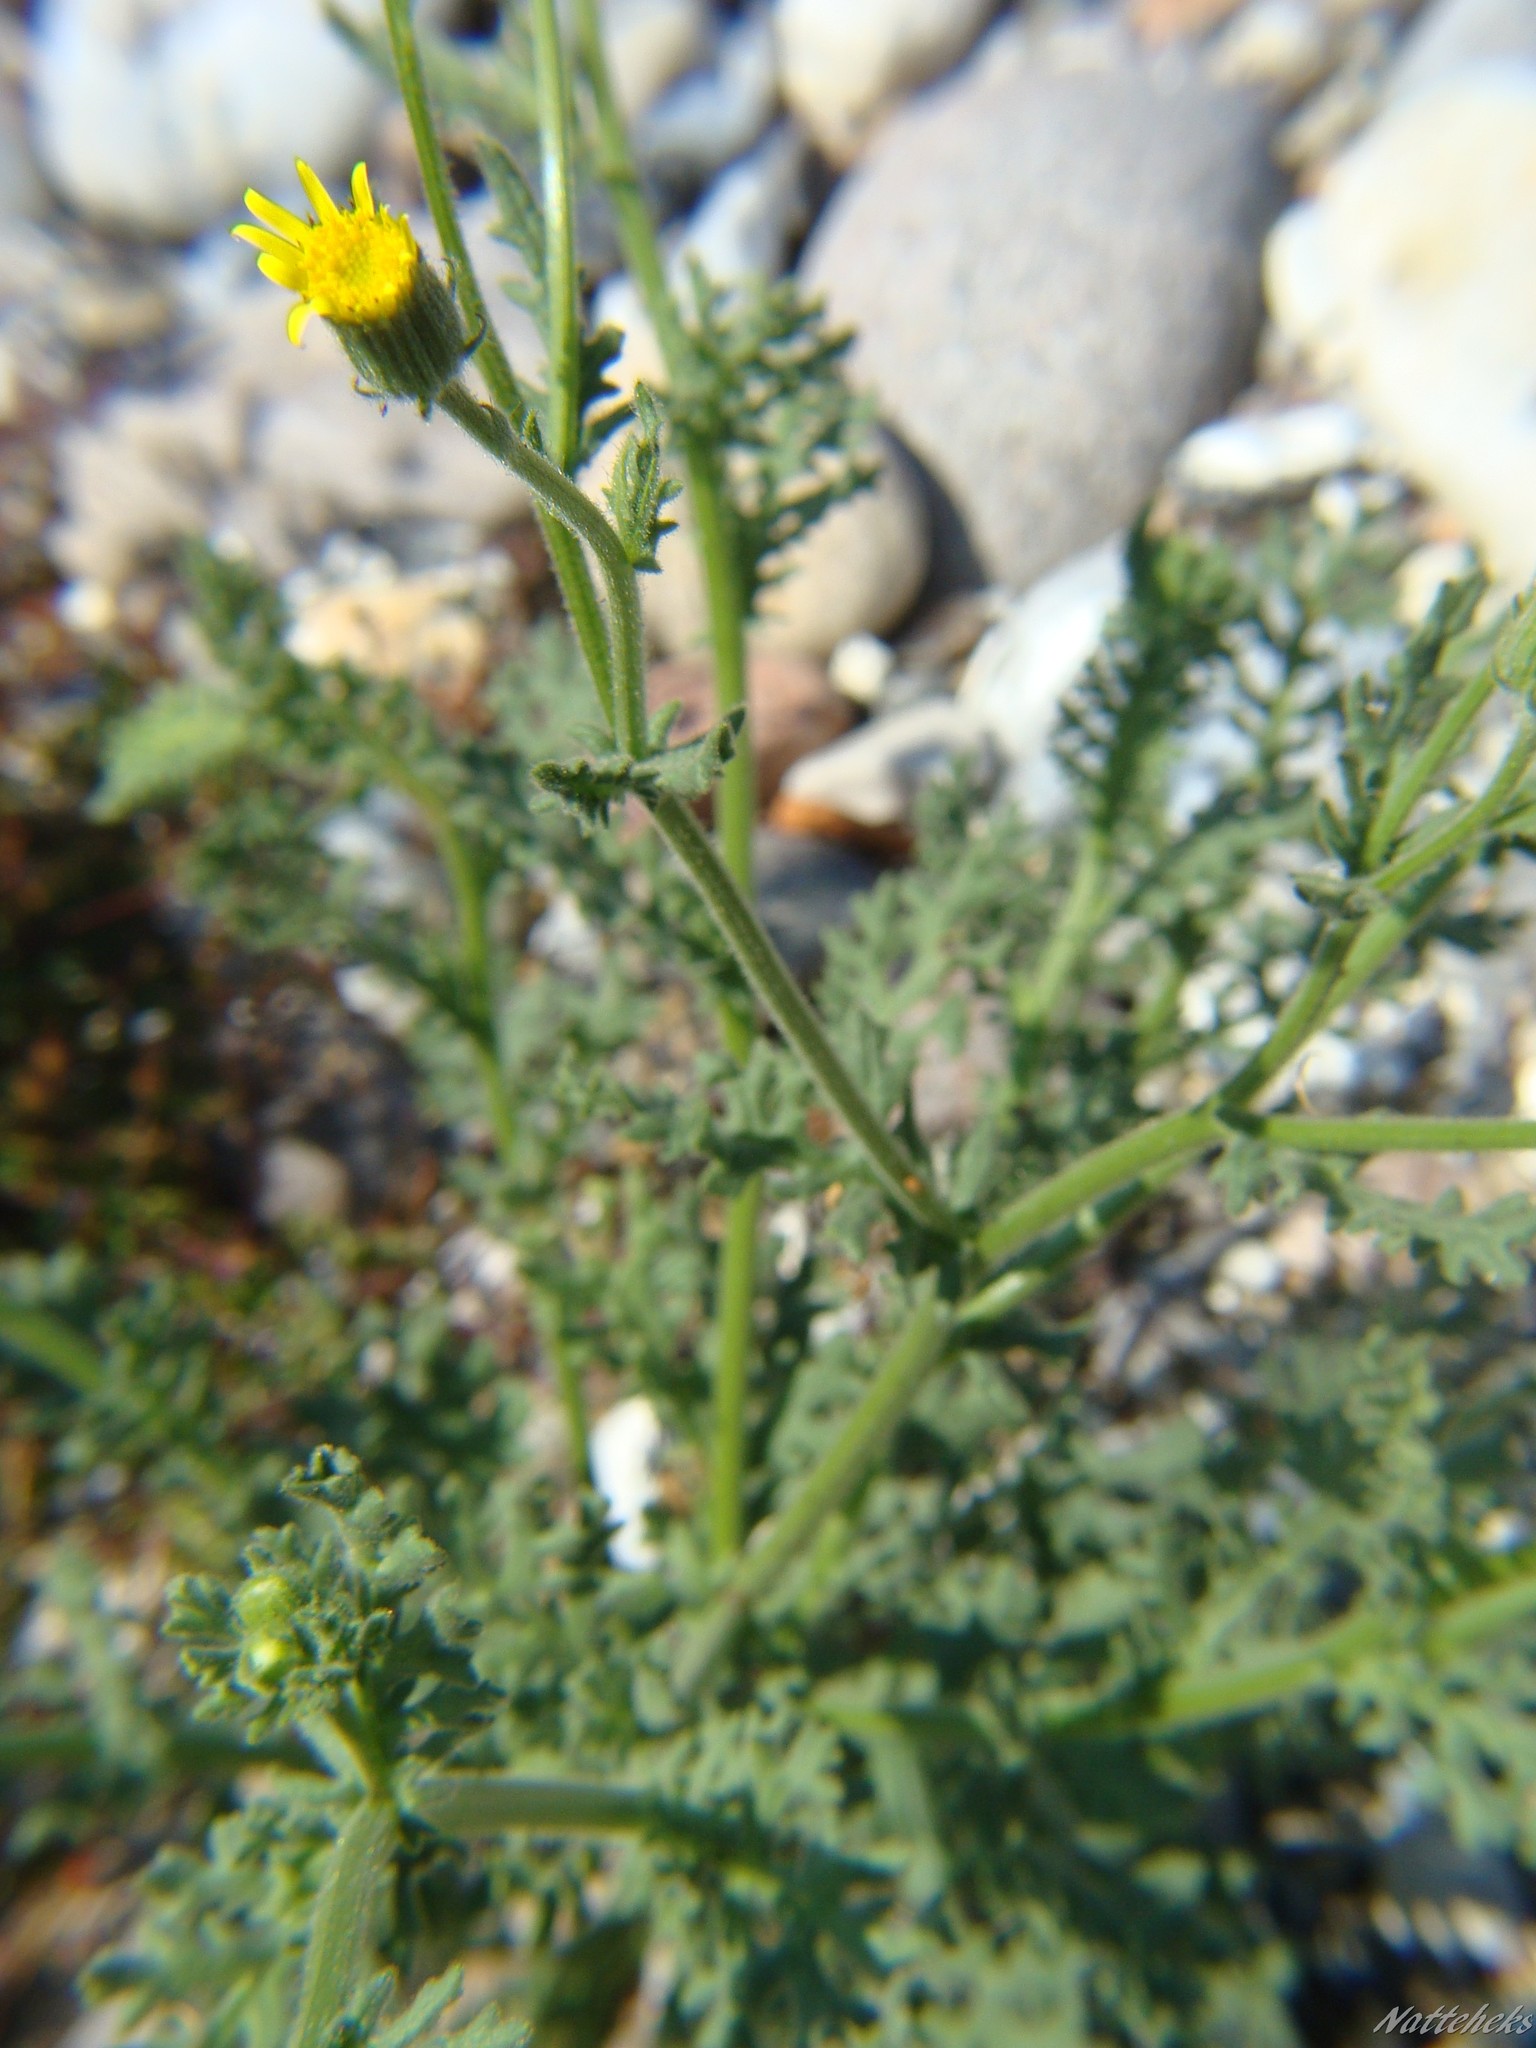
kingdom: Plantae
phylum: Tracheophyta
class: Magnoliopsida
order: Asterales
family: Asteraceae
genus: Senecio
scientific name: Senecio viscosus
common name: Sticky groundsel
